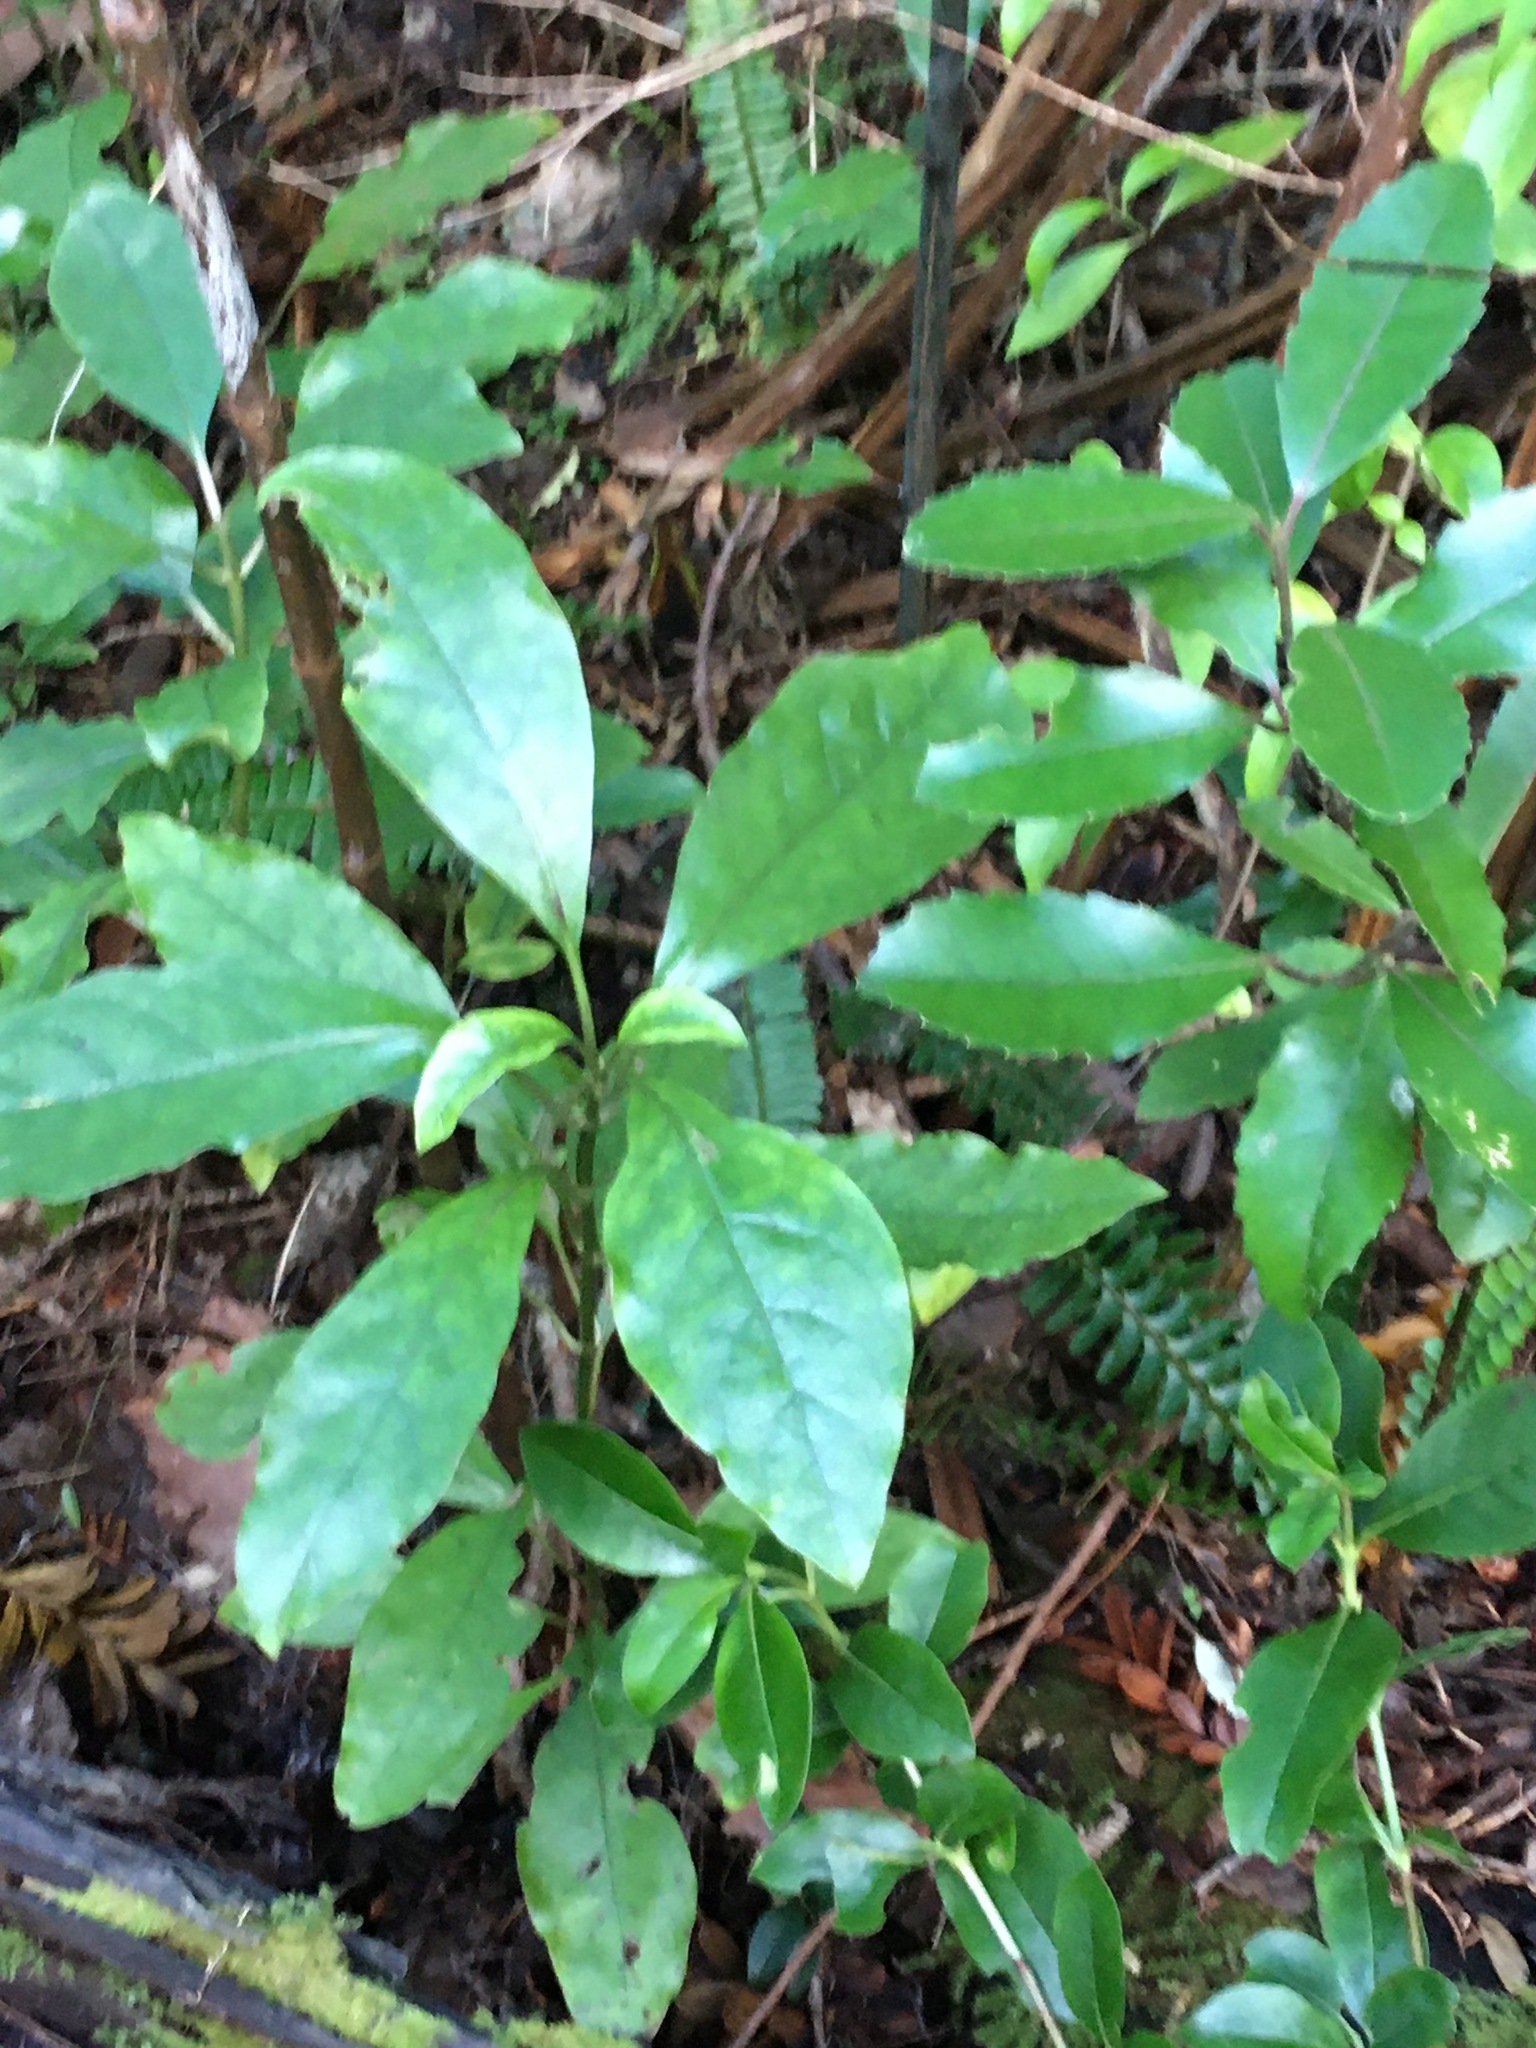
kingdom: Plantae
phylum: Tracheophyta
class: Magnoliopsida
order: Gentianales
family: Rubiaceae
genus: Coprosma
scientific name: Coprosma autumnalis
